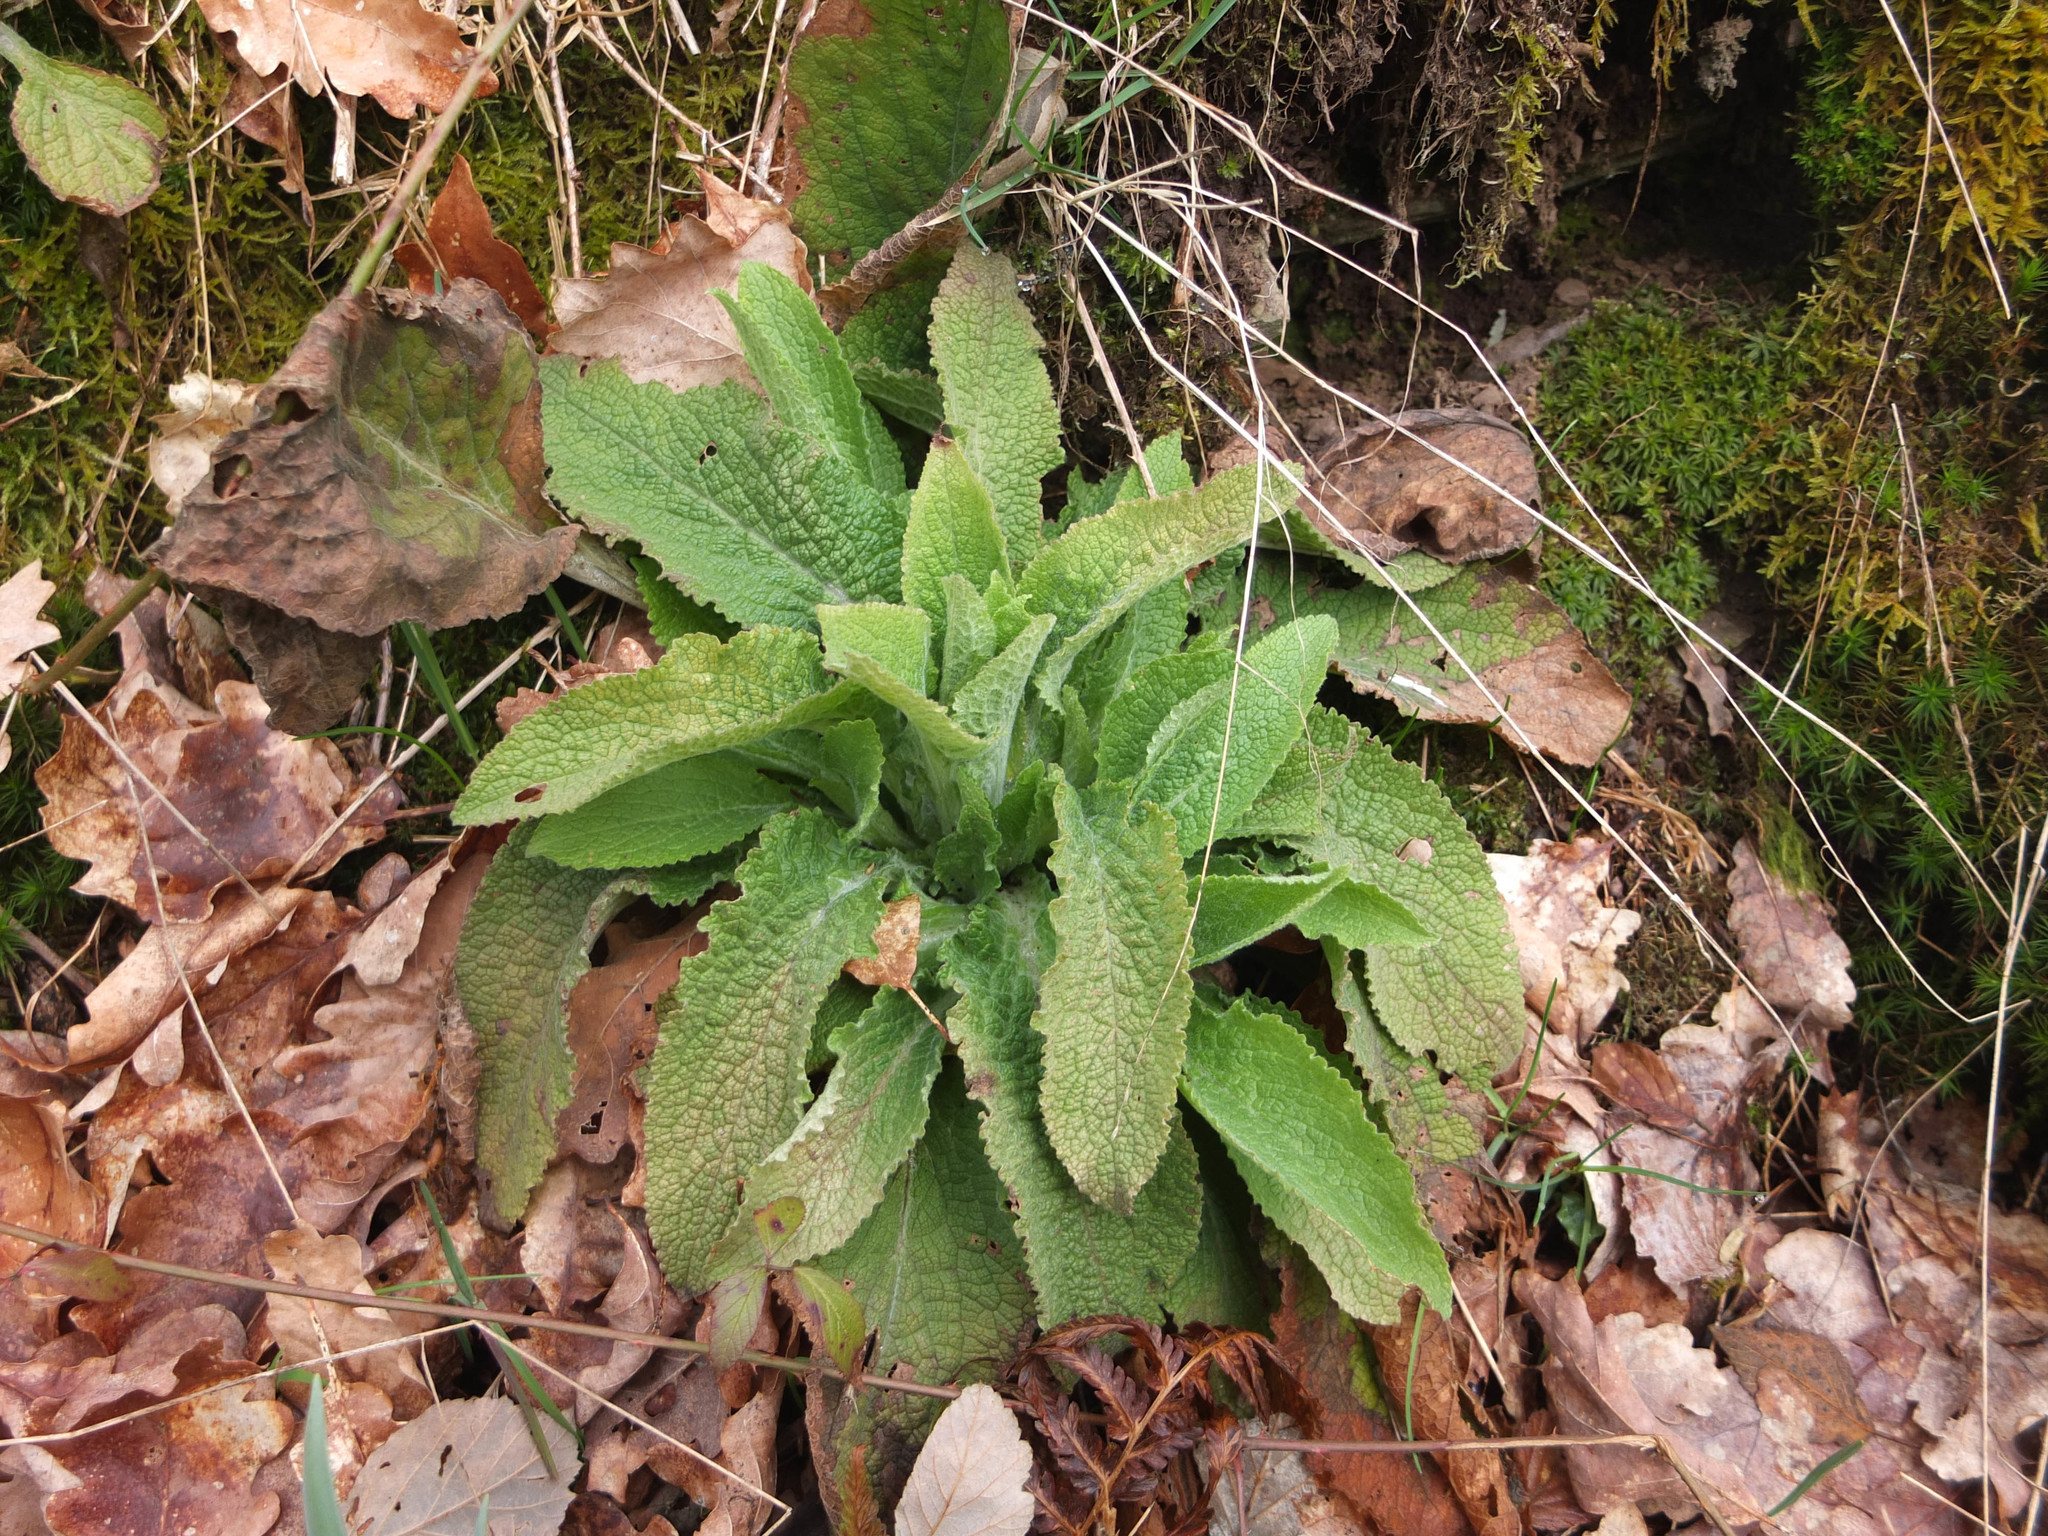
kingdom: Plantae
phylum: Tracheophyta
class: Magnoliopsida
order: Lamiales
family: Plantaginaceae
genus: Digitalis
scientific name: Digitalis purpurea
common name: Foxglove
